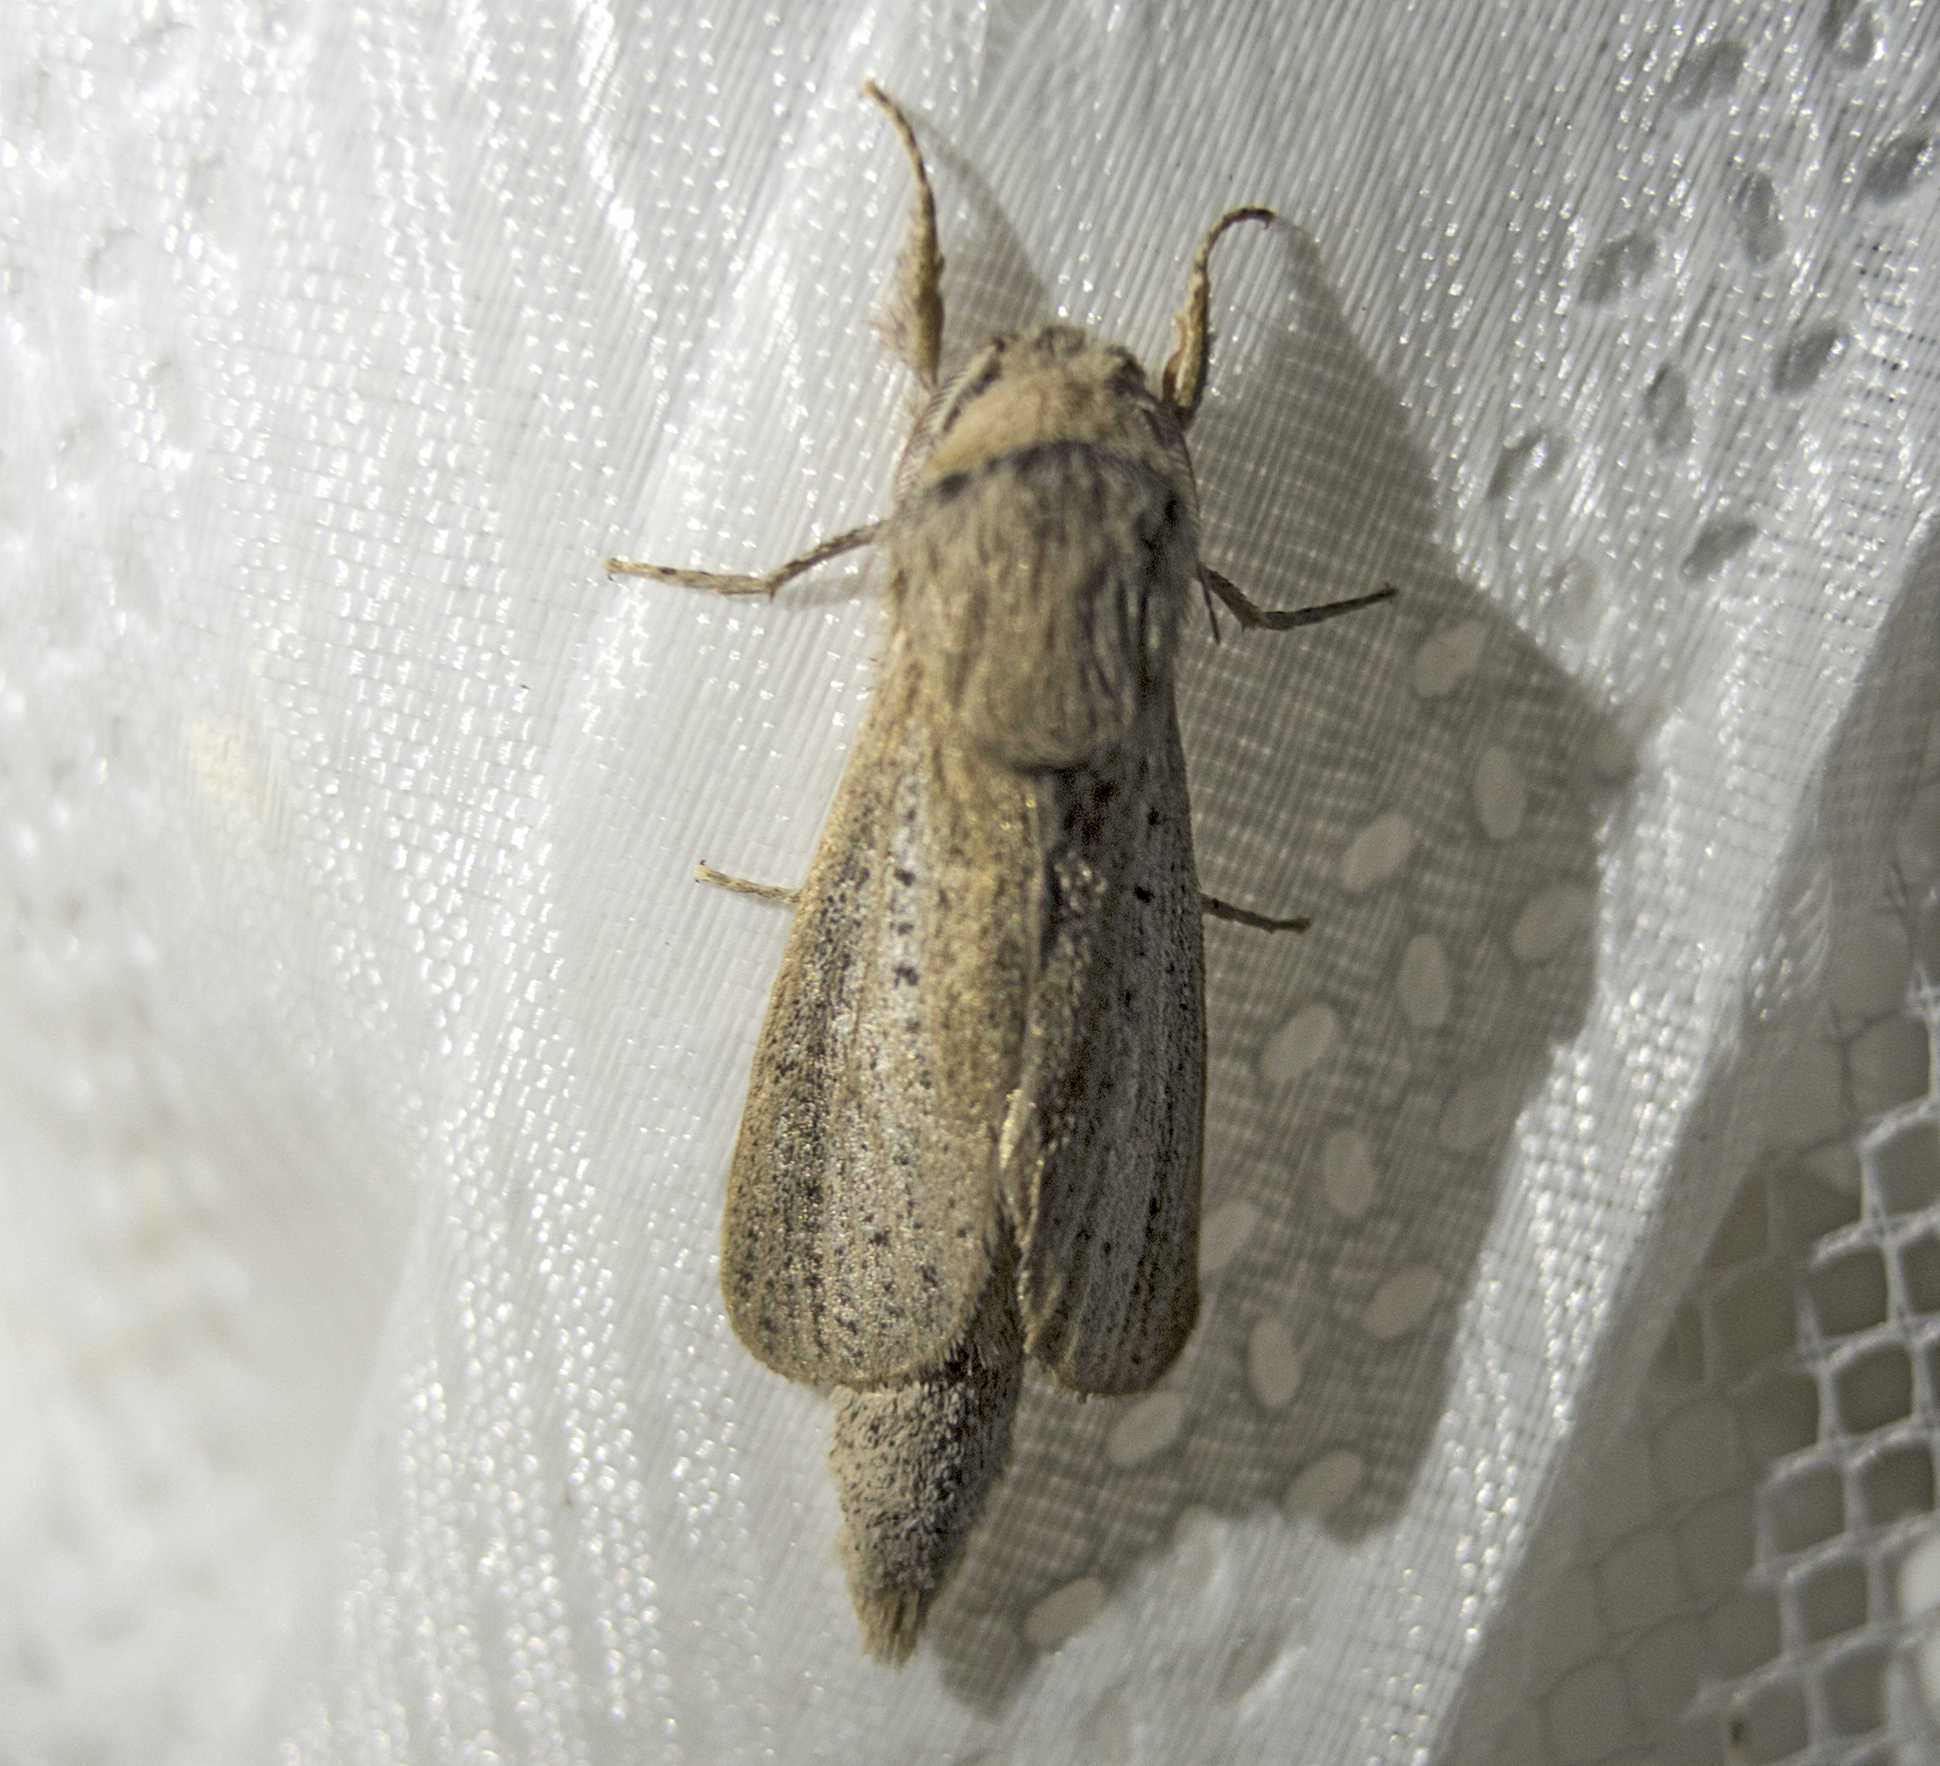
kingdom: Animalia
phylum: Arthropoda
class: Insecta
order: Lepidoptera
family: Cossidae
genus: Phragmataecia
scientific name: Phragmataecia castaneae
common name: Reed leopard
